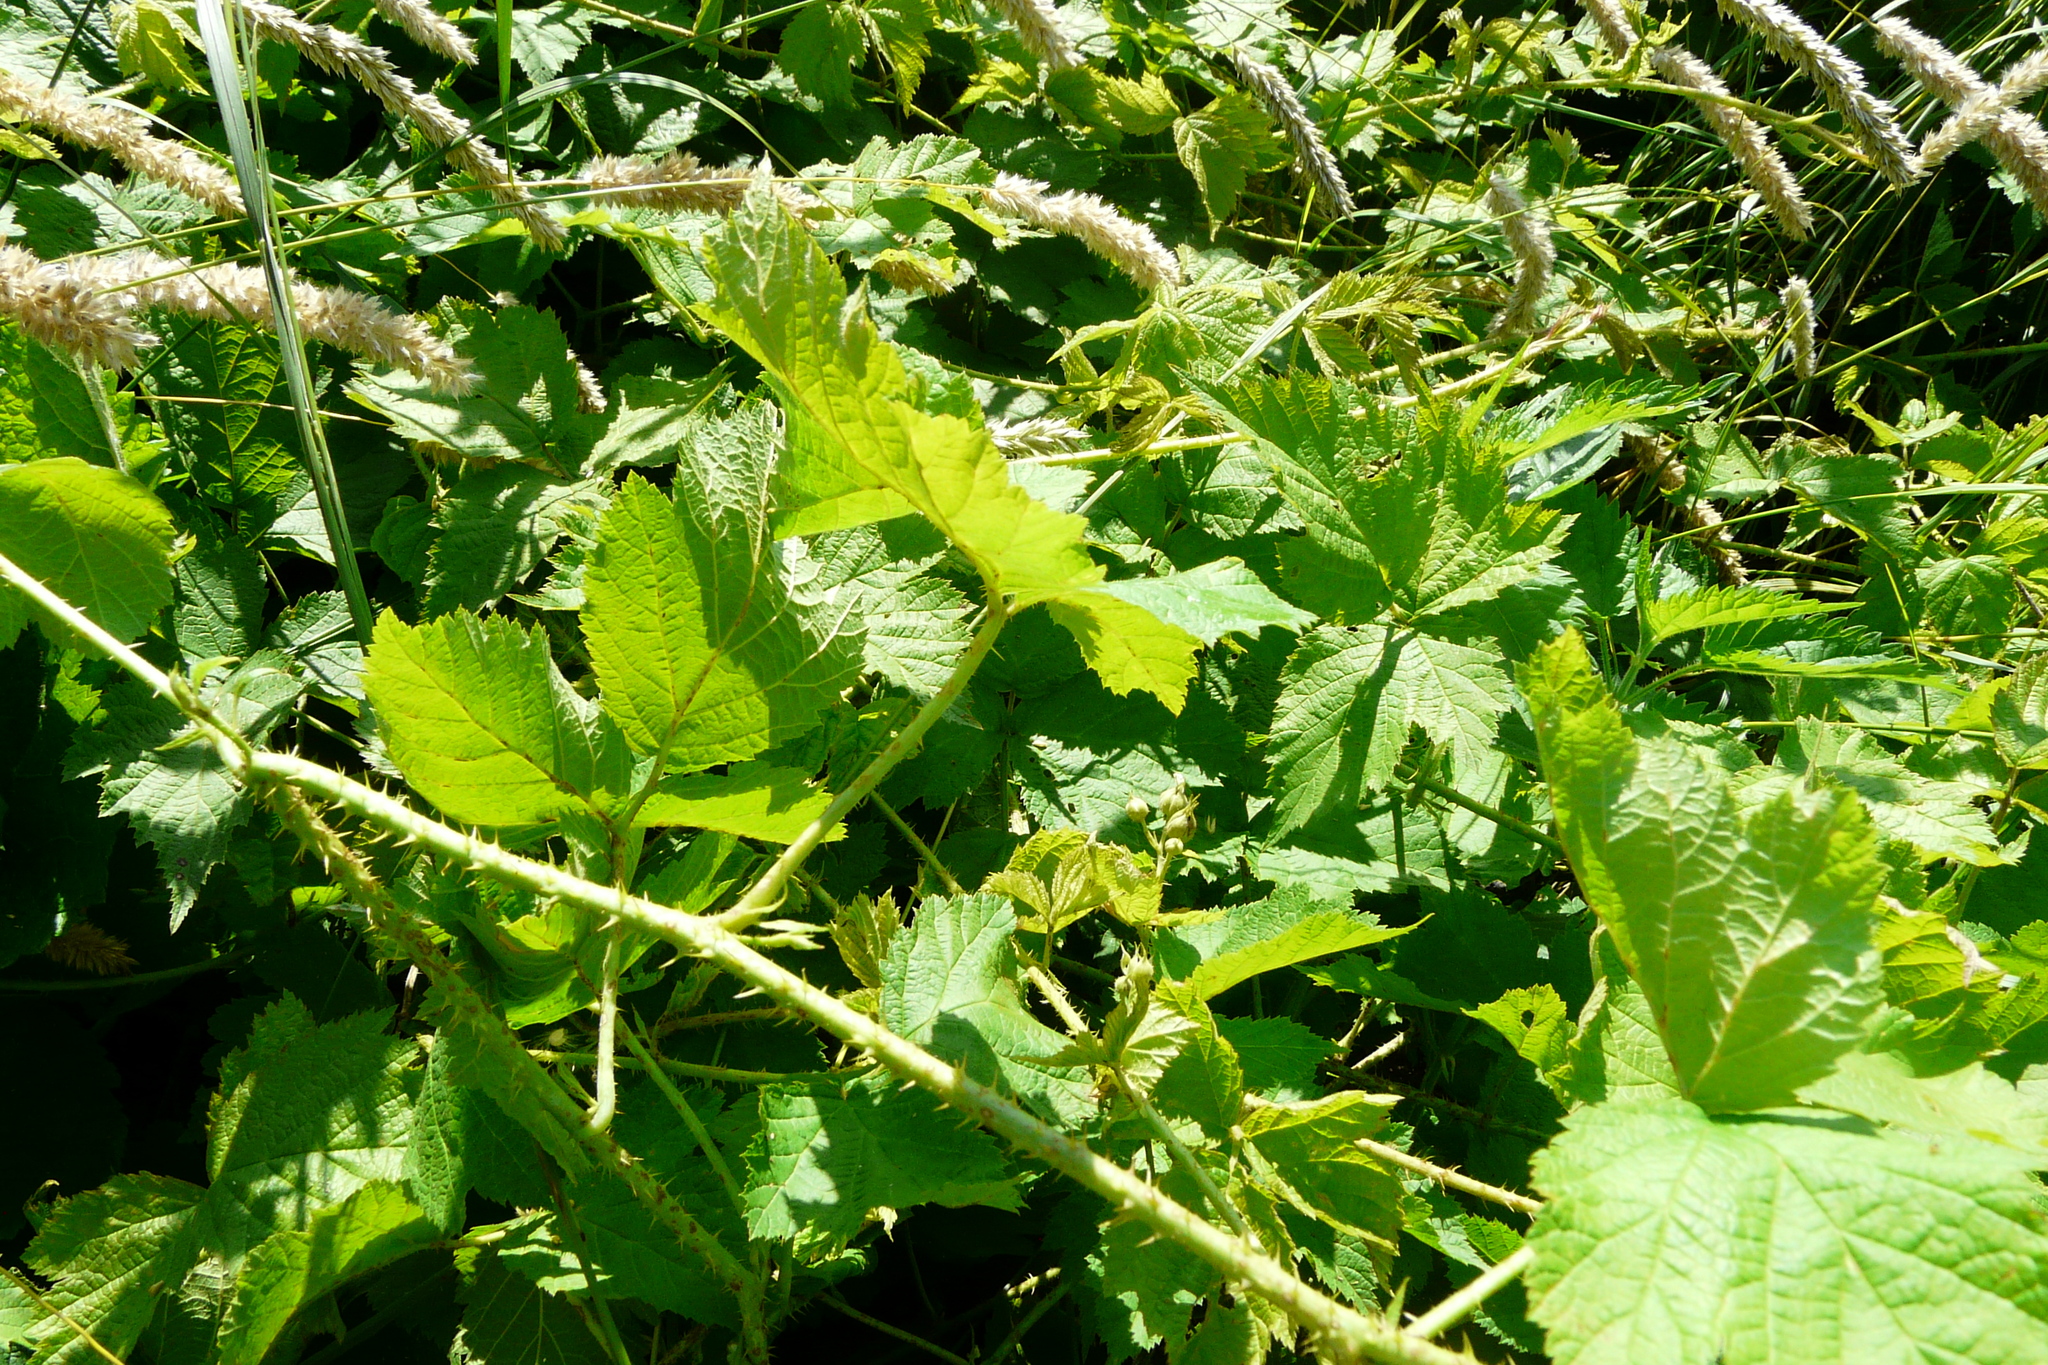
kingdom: Plantae
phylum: Tracheophyta
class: Magnoliopsida
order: Rosales
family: Rosaceae
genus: Rubus
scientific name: Rubus caesius
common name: Dewberry
